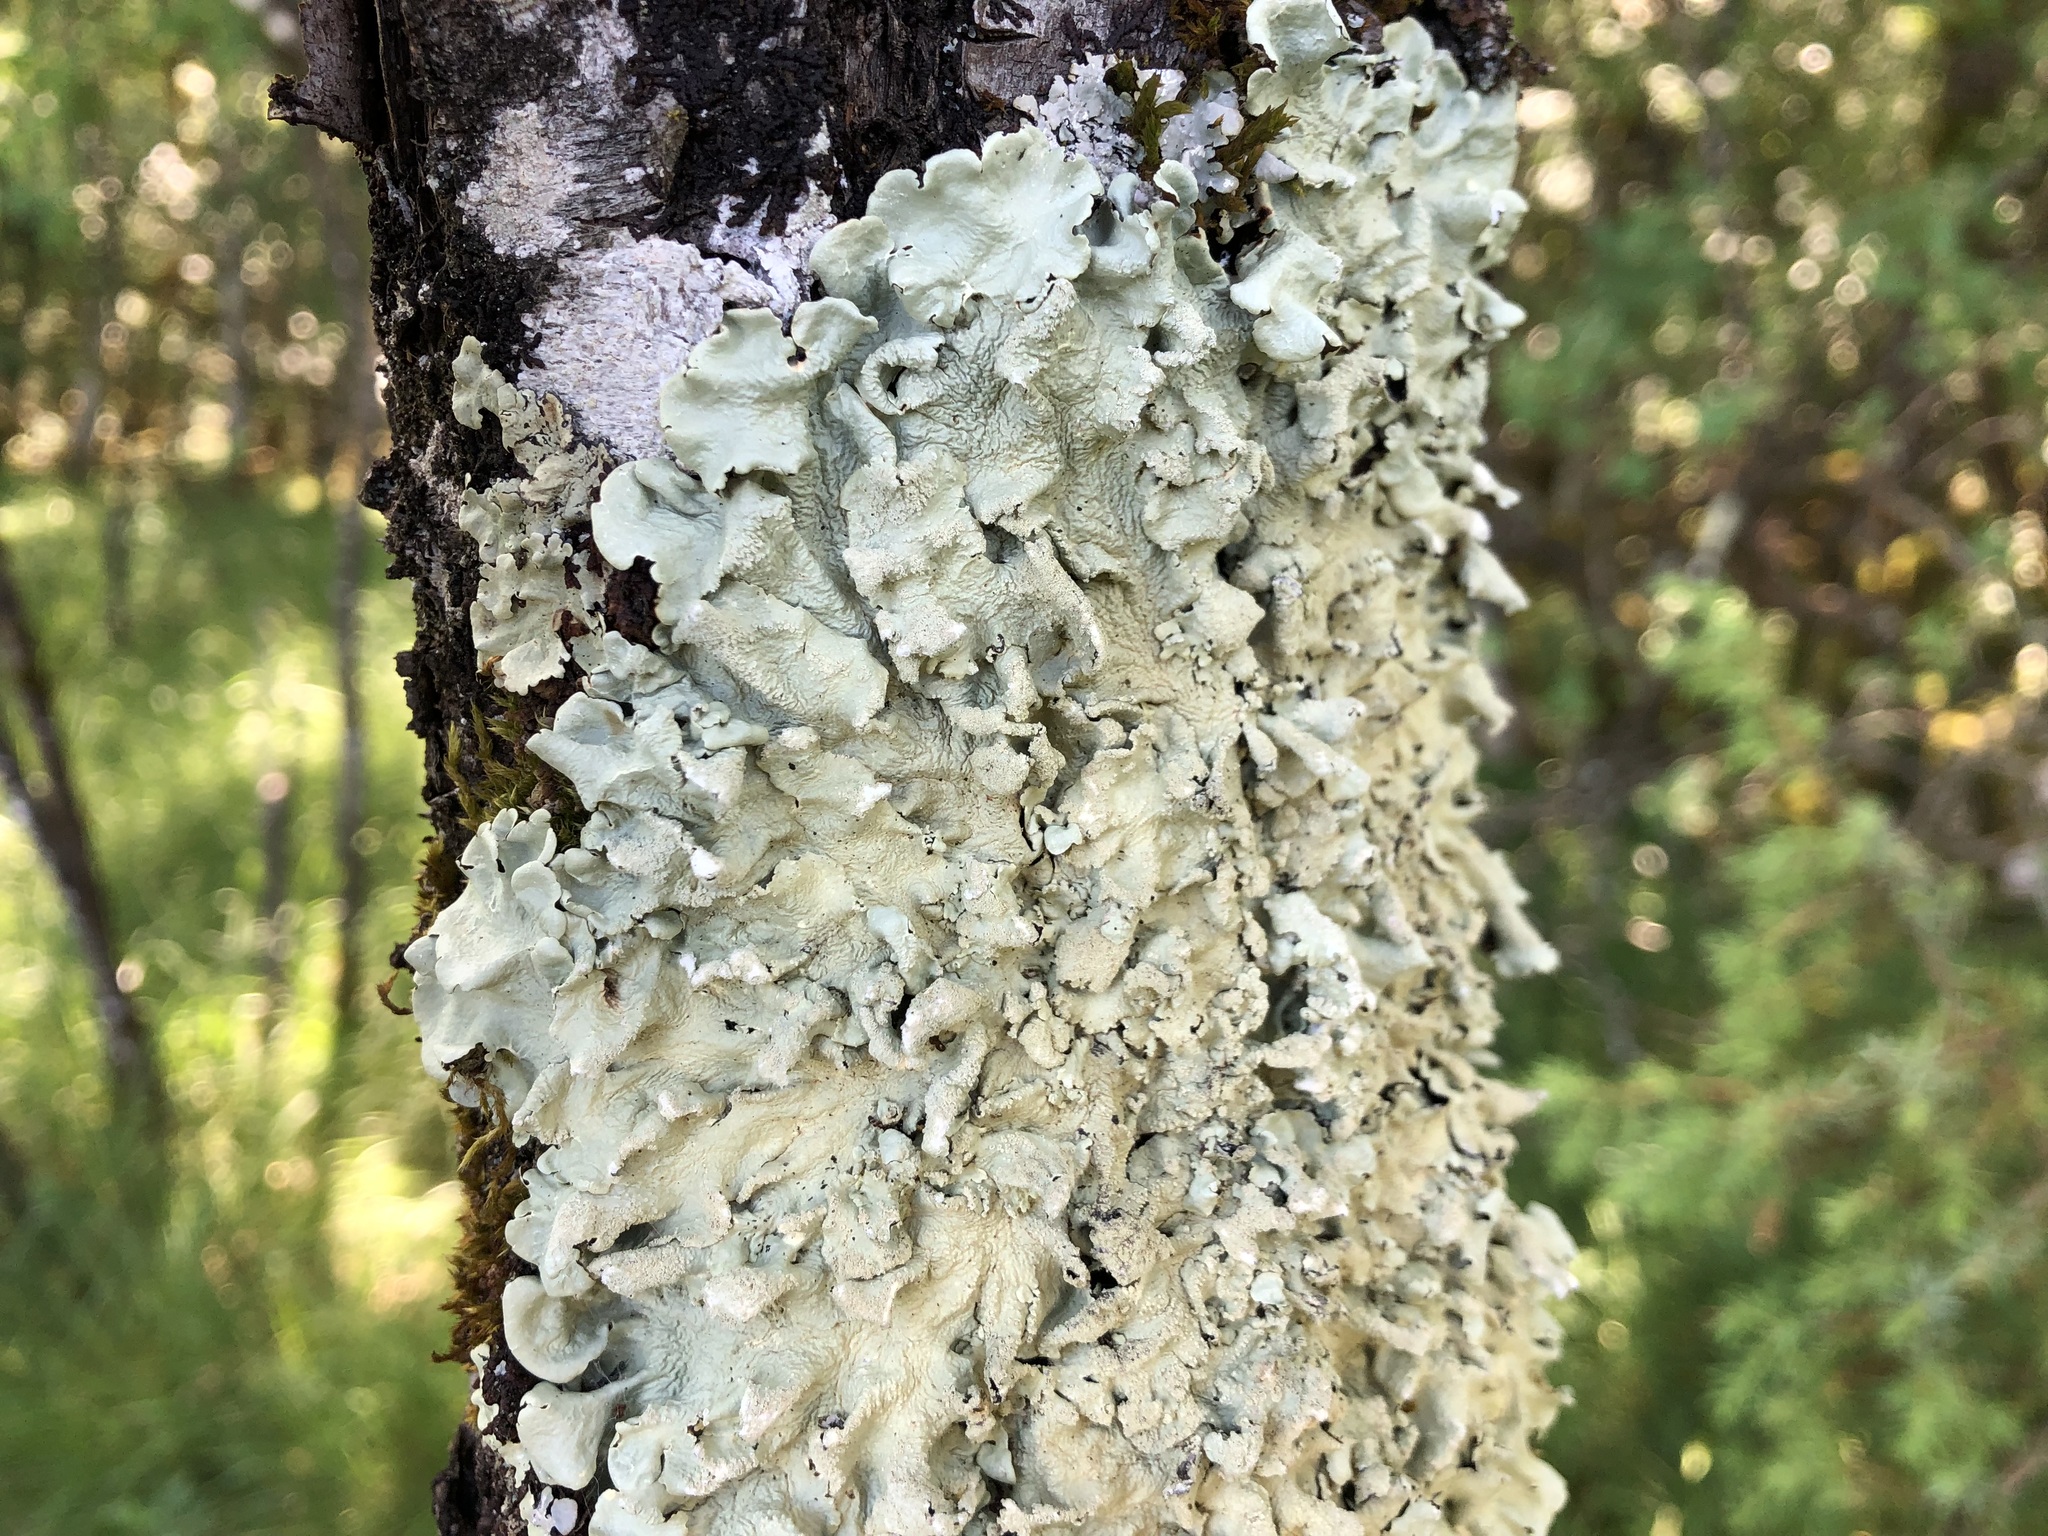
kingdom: Fungi
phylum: Ascomycota
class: Lecanoromycetes
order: Lecanorales
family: Parmeliaceae
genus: Flavoparmelia
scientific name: Flavoparmelia caperata
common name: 40-mile per hour lichen
